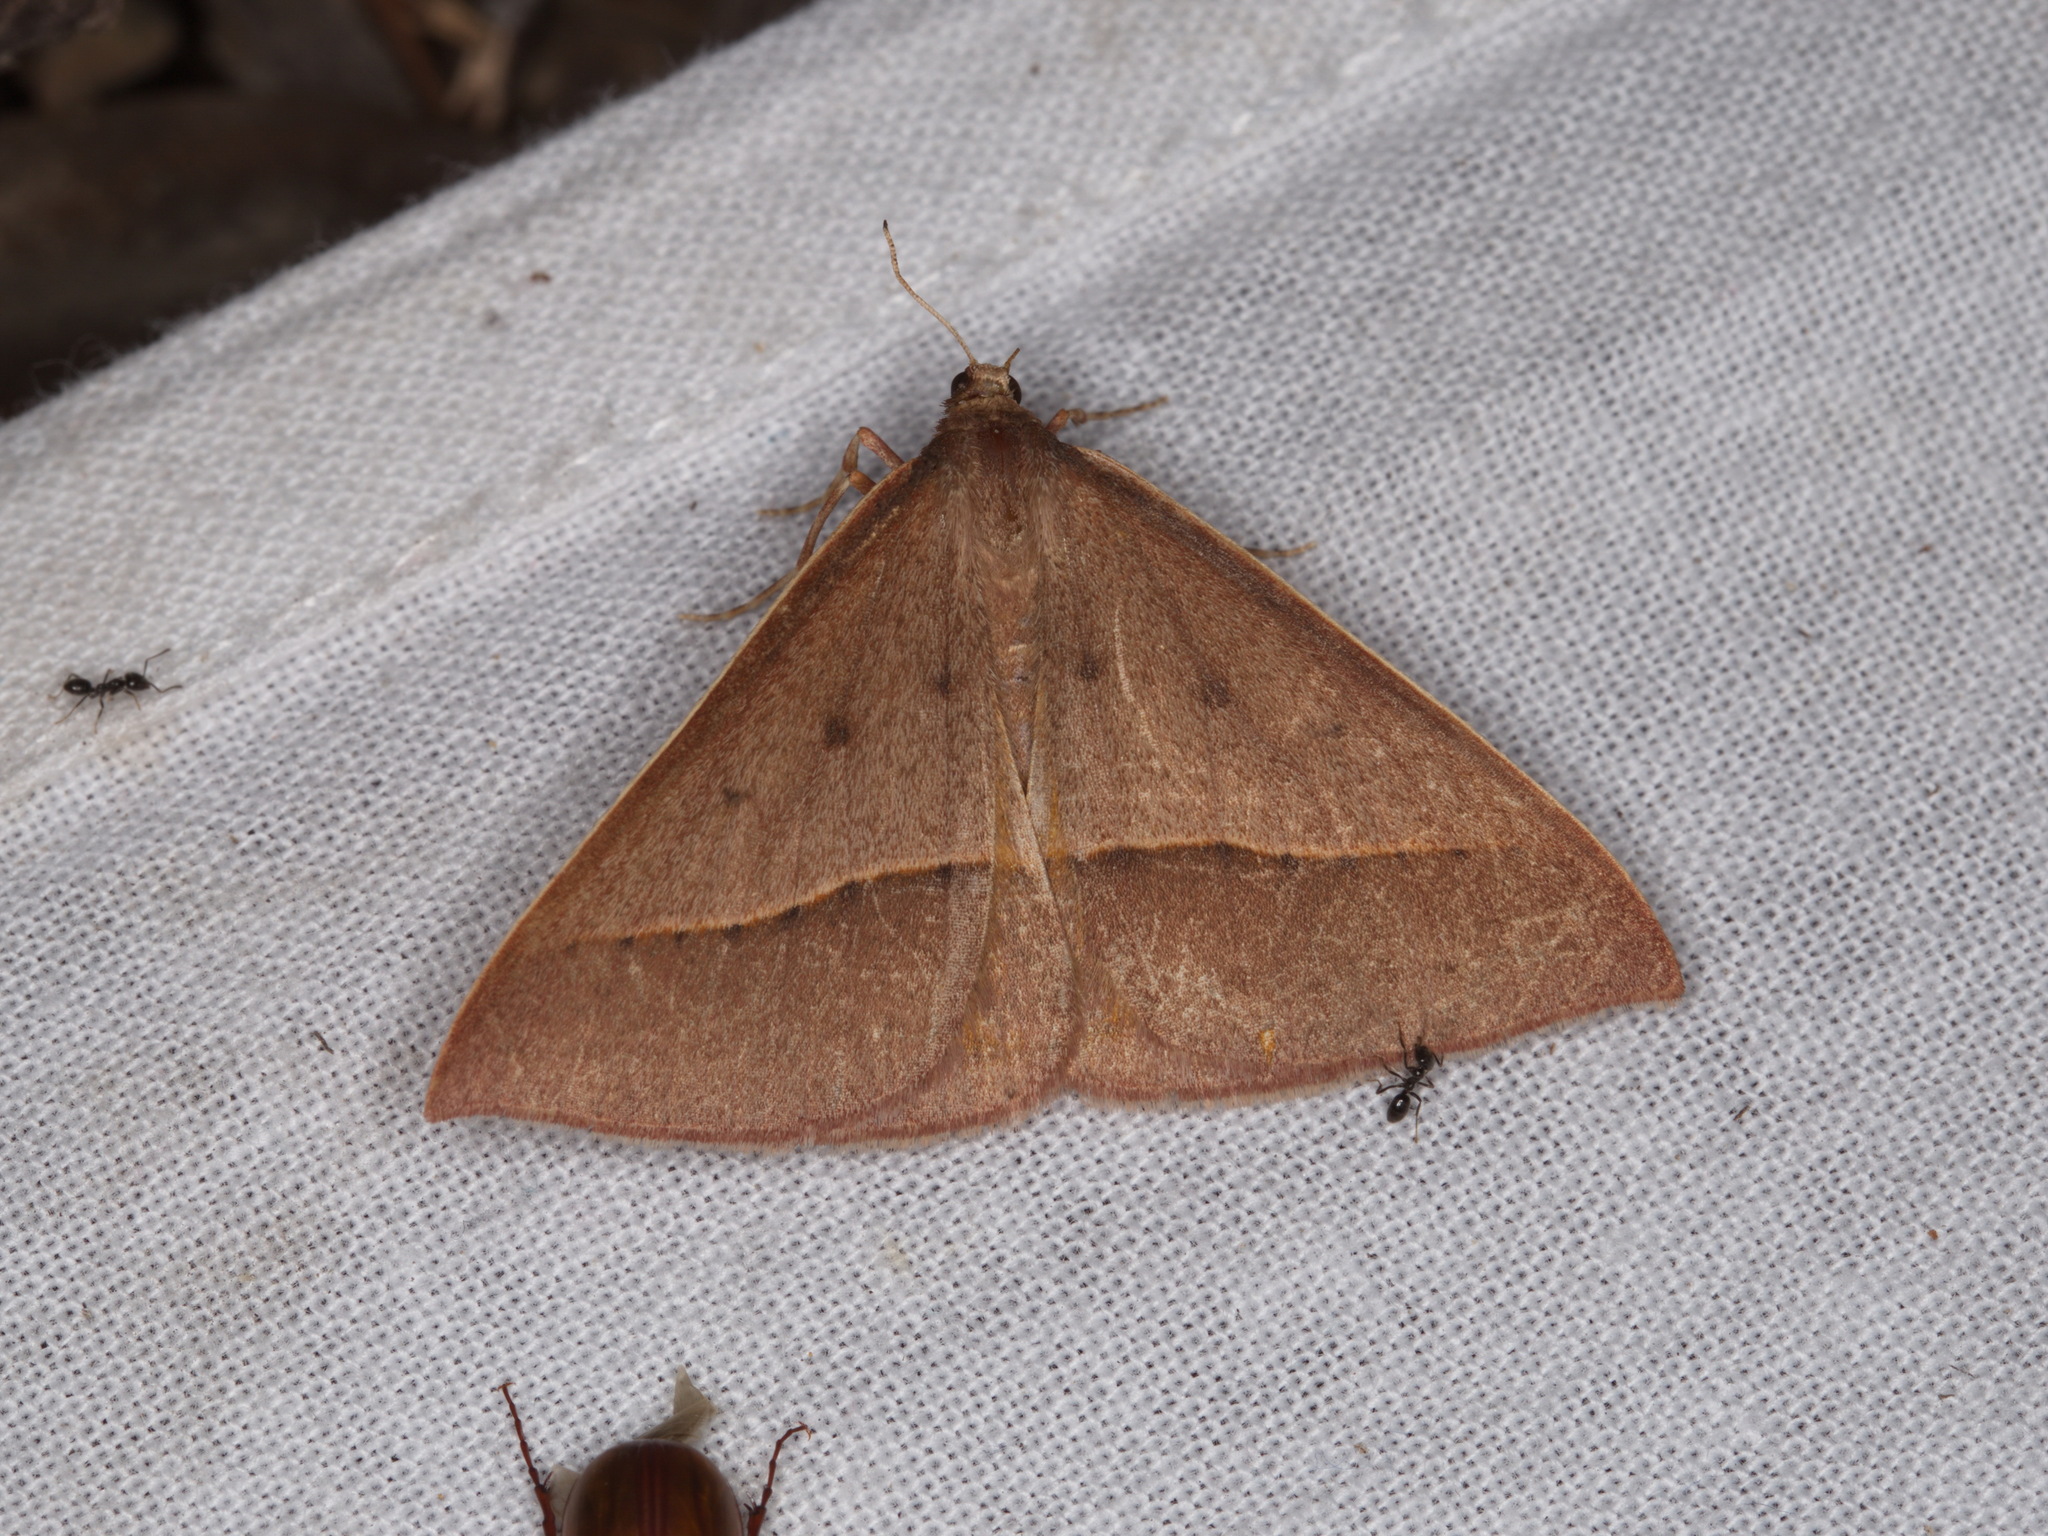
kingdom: Animalia
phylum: Arthropoda
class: Insecta
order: Lepidoptera
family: Geometridae
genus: Epidesmia
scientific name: Epidesmia chilonaria
